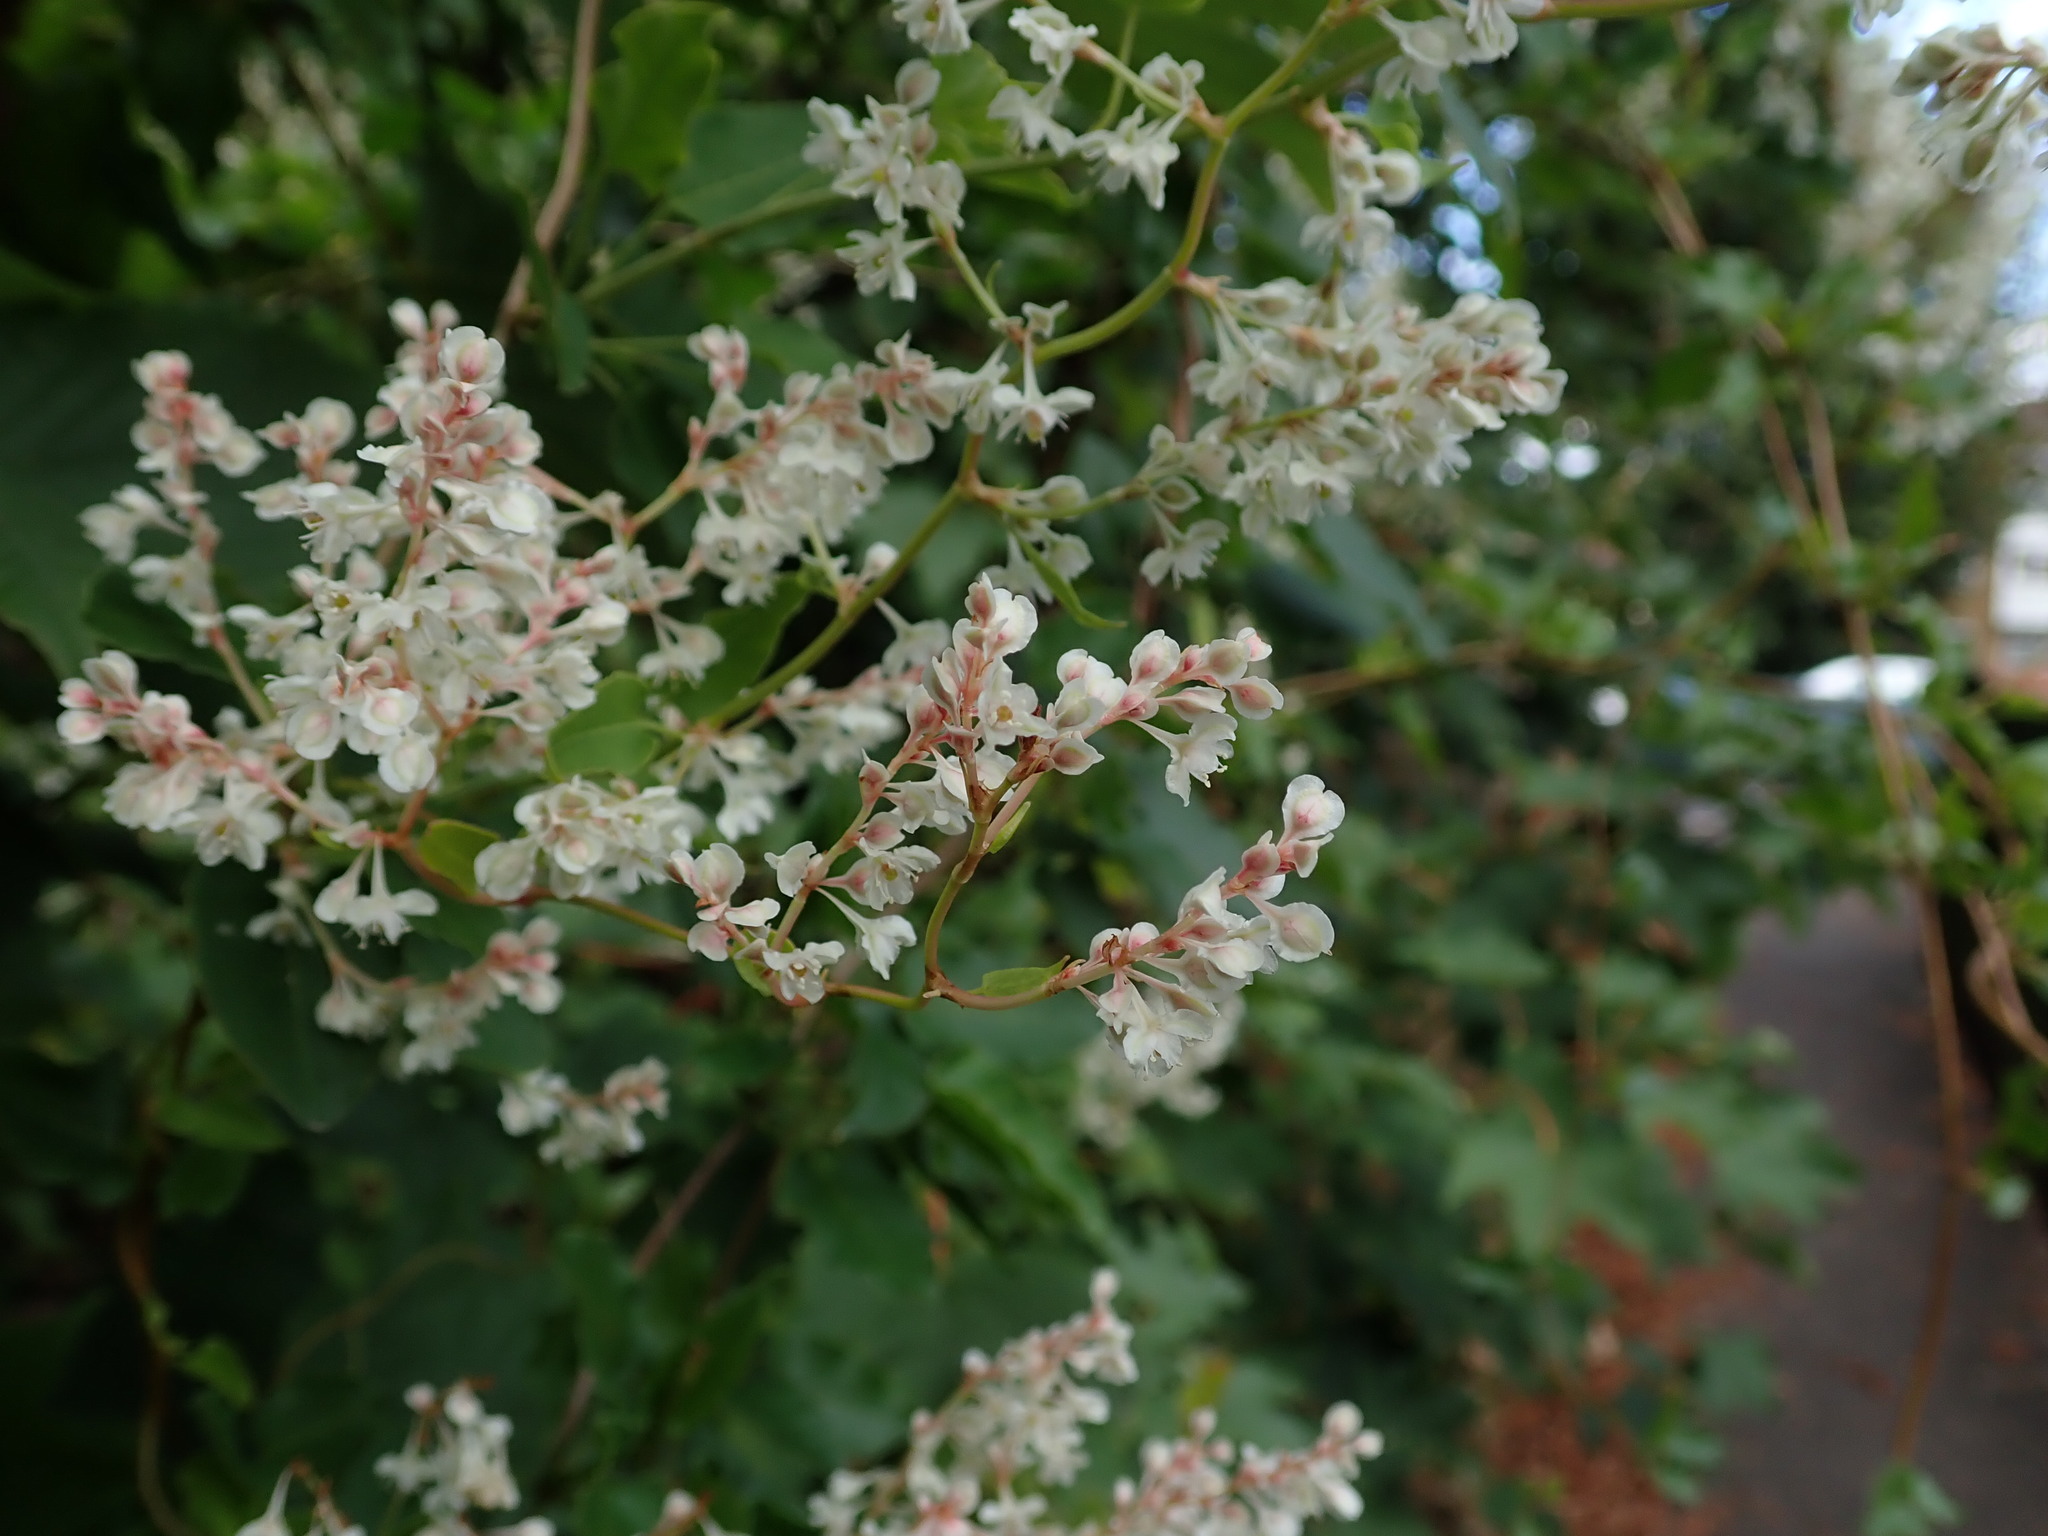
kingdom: Plantae
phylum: Tracheophyta
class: Magnoliopsida
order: Caryophyllales
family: Polygonaceae
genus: Fallopia
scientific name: Fallopia baldschuanica
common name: Russian-vine
